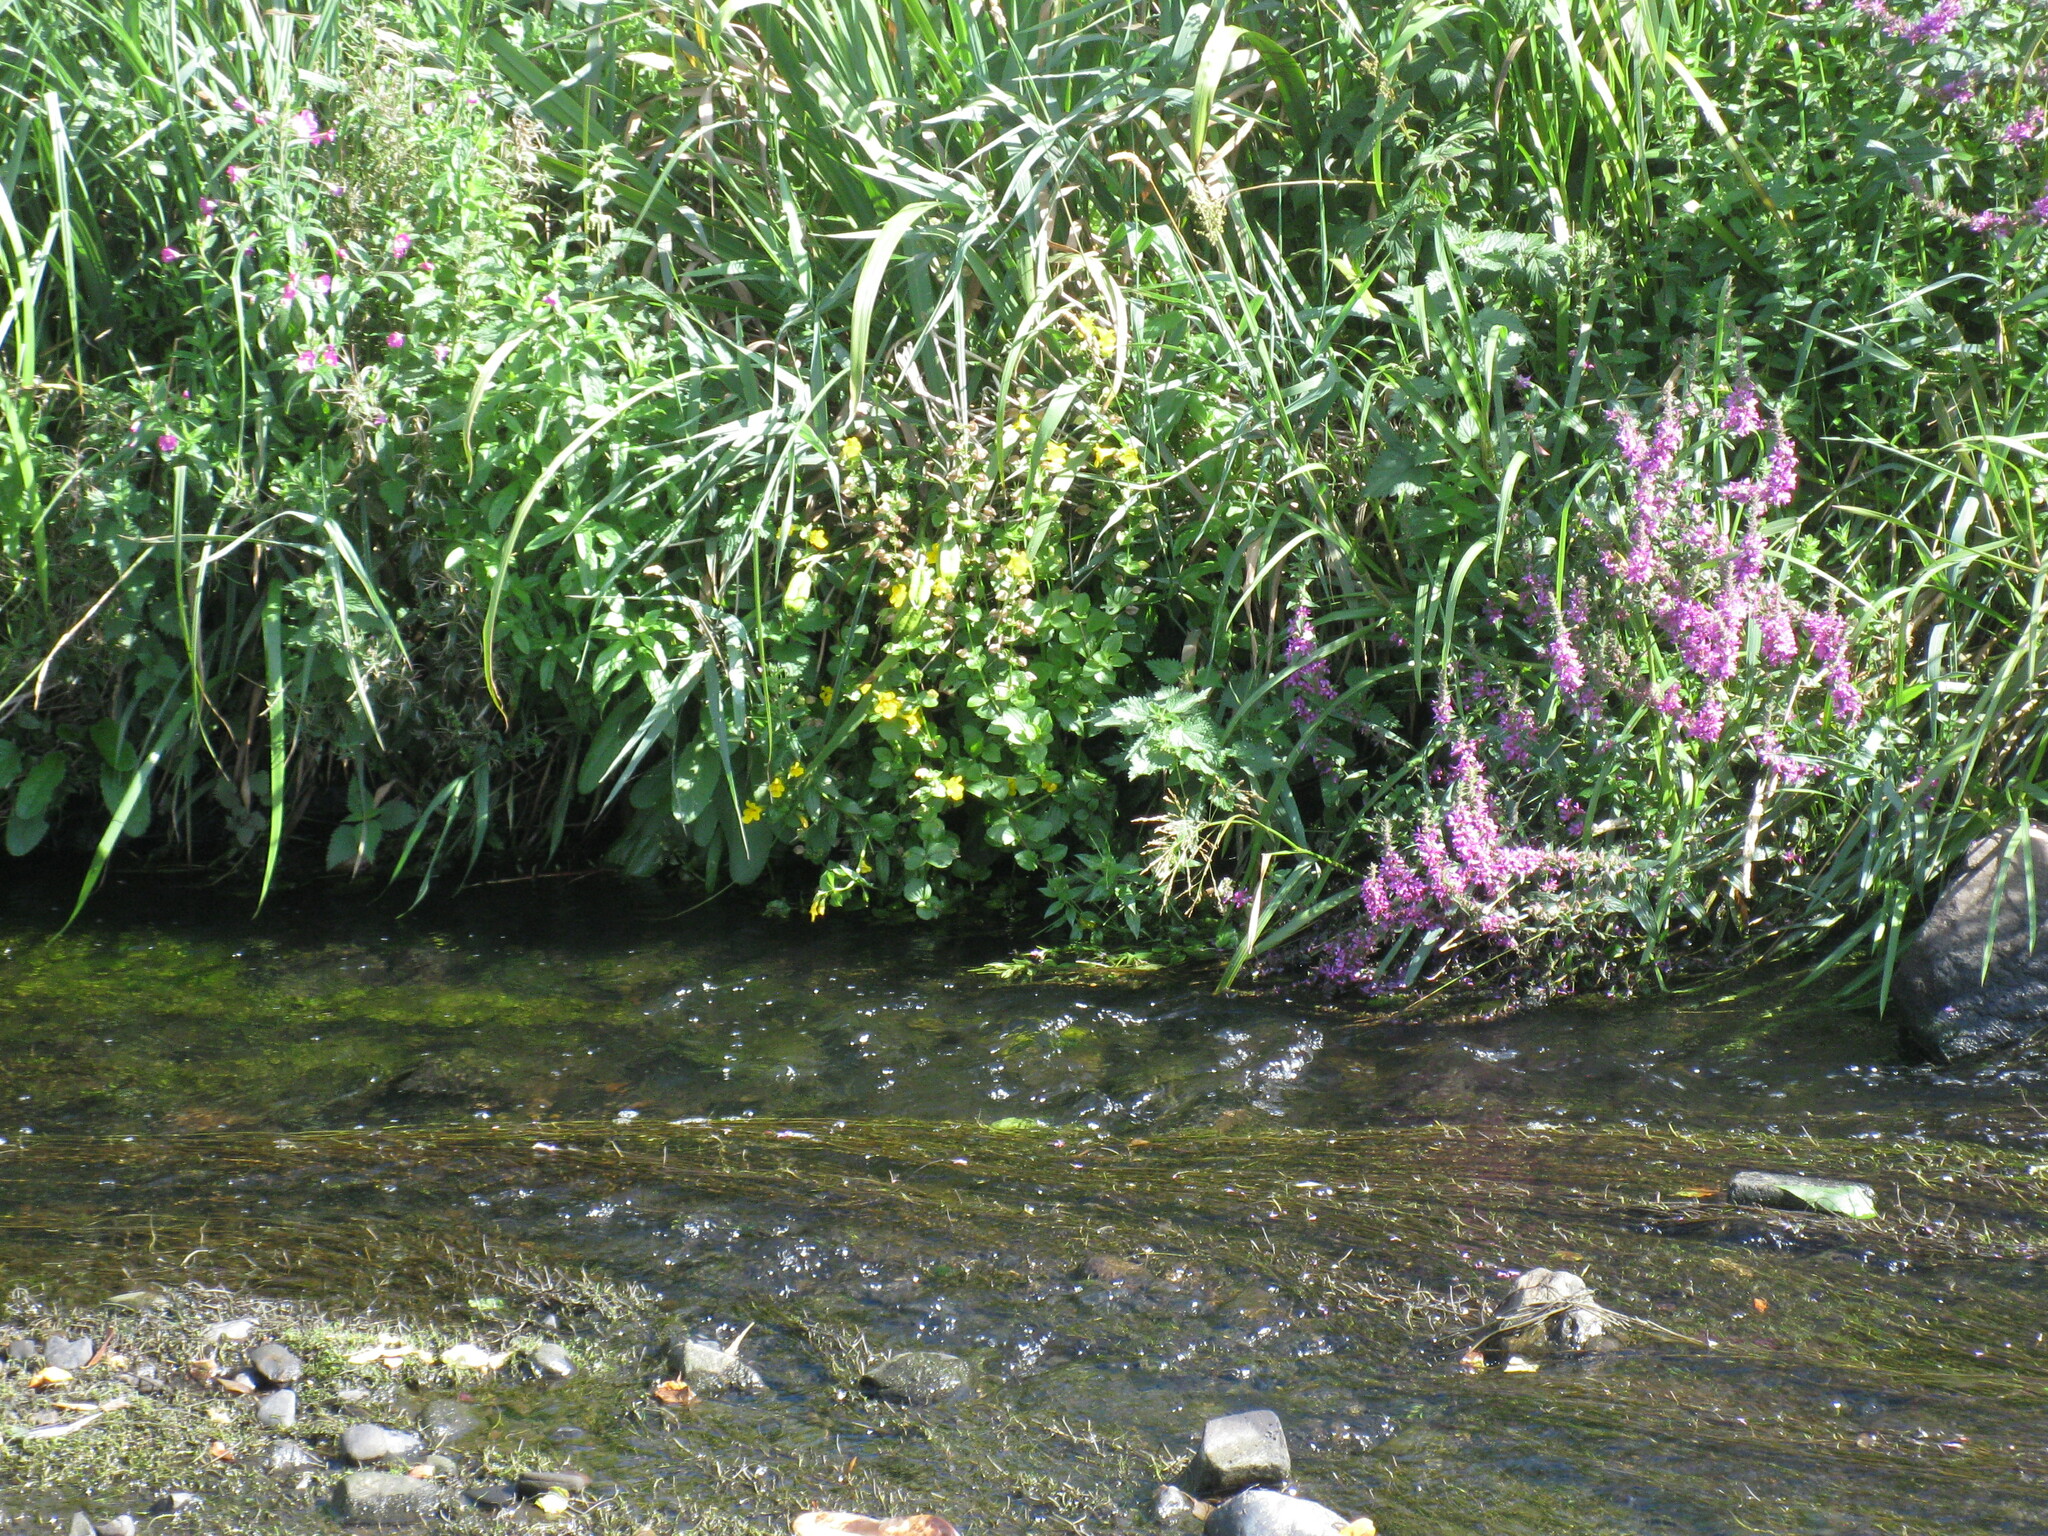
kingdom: Plantae
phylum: Tracheophyta
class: Magnoliopsida
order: Myrtales
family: Lythraceae
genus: Lythrum
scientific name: Lythrum salicaria
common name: Purple loosestrife
